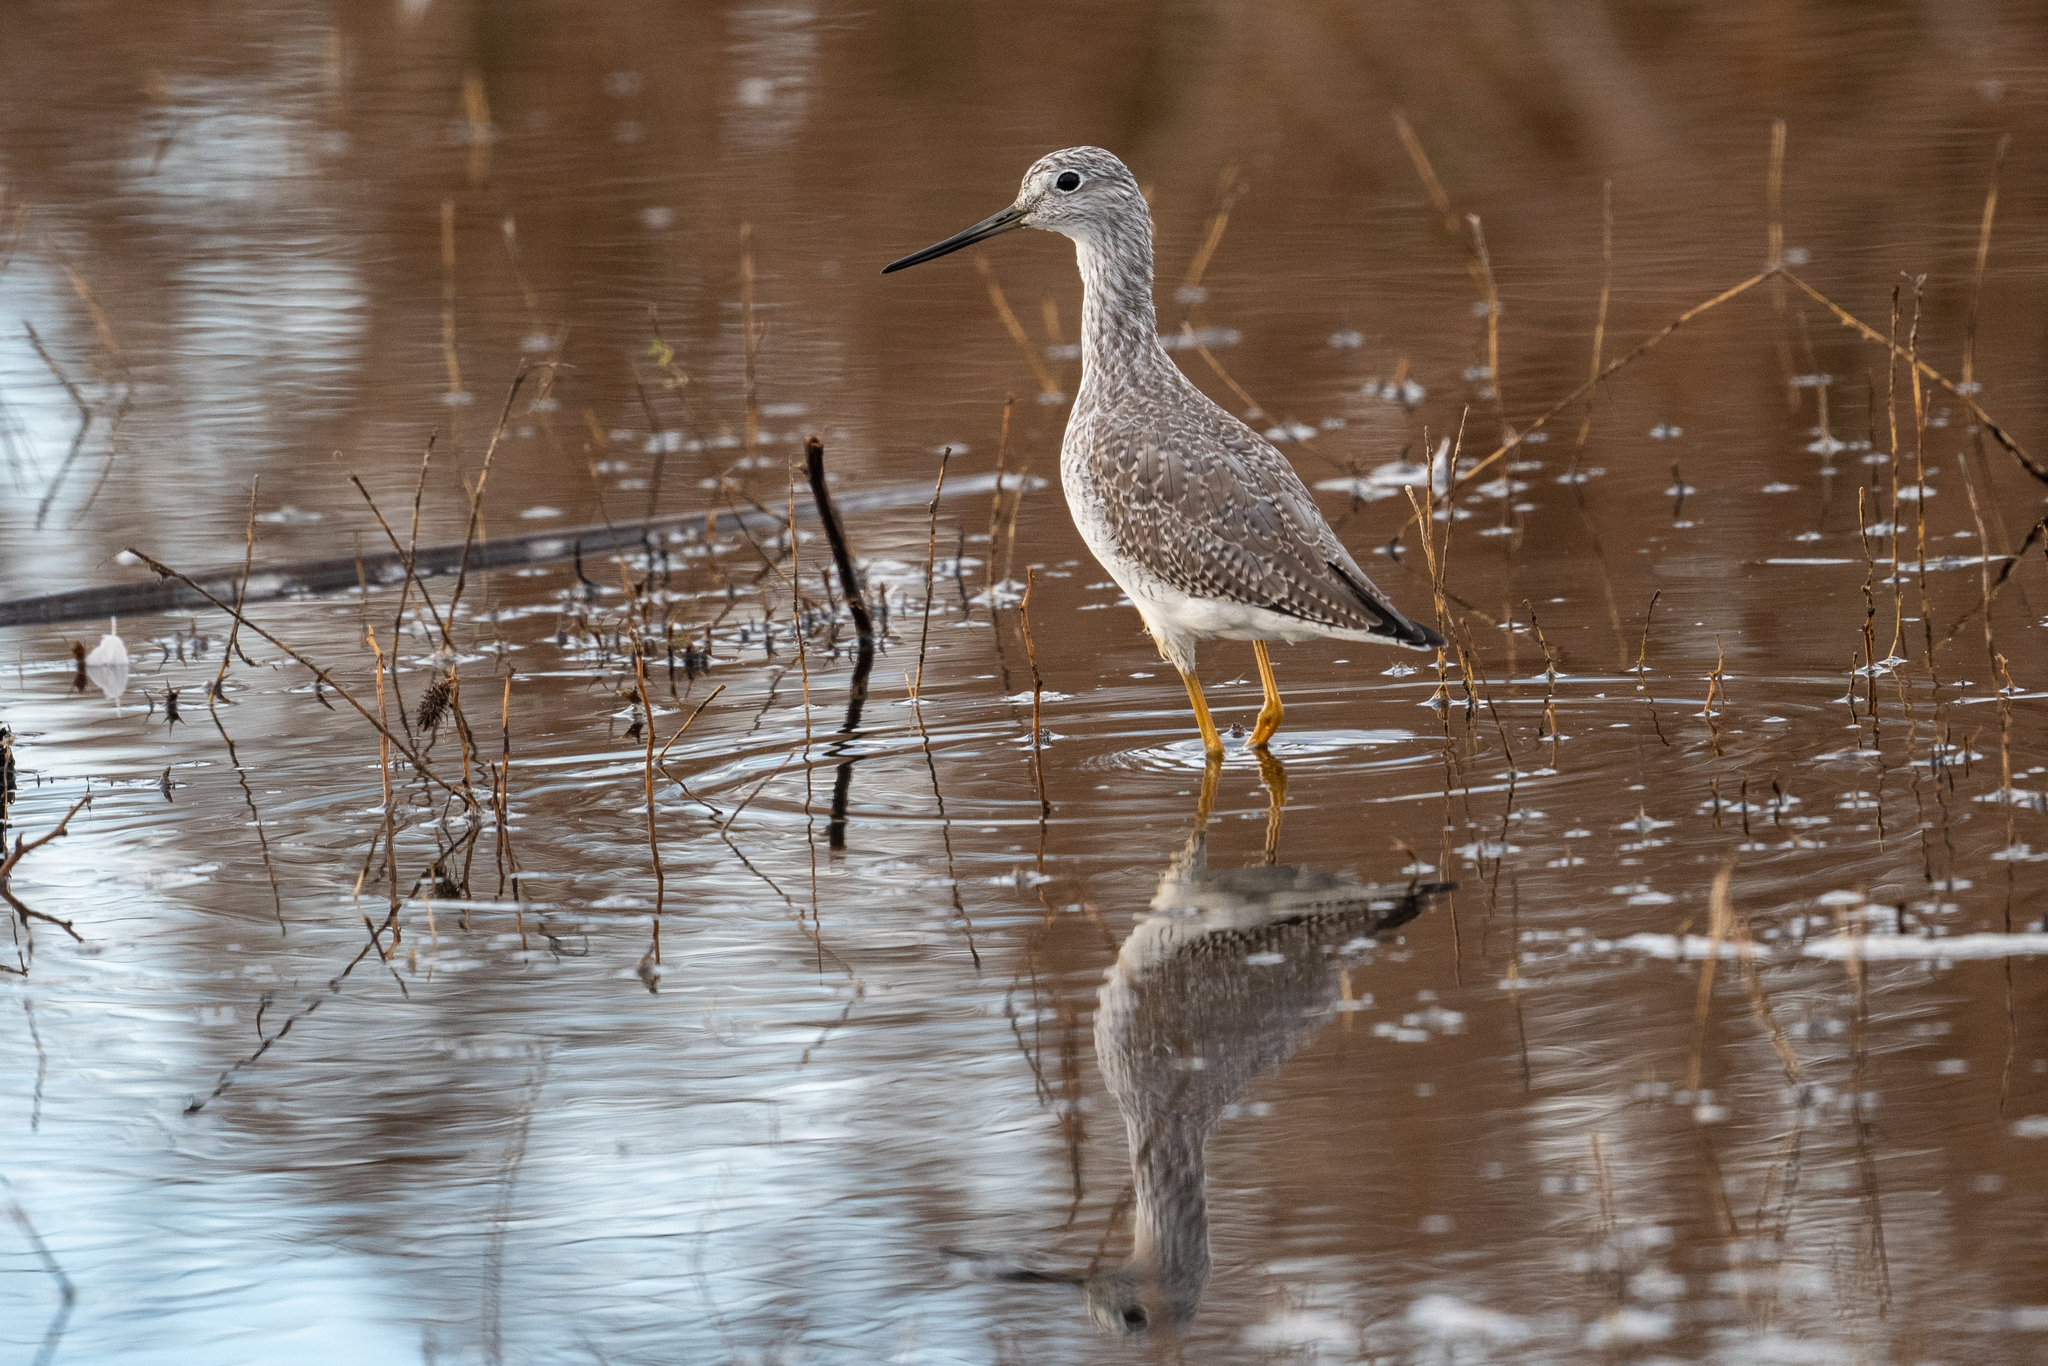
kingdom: Animalia
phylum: Chordata
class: Aves
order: Charadriiformes
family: Scolopacidae
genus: Tringa
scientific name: Tringa melanoleuca
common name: Greater yellowlegs
